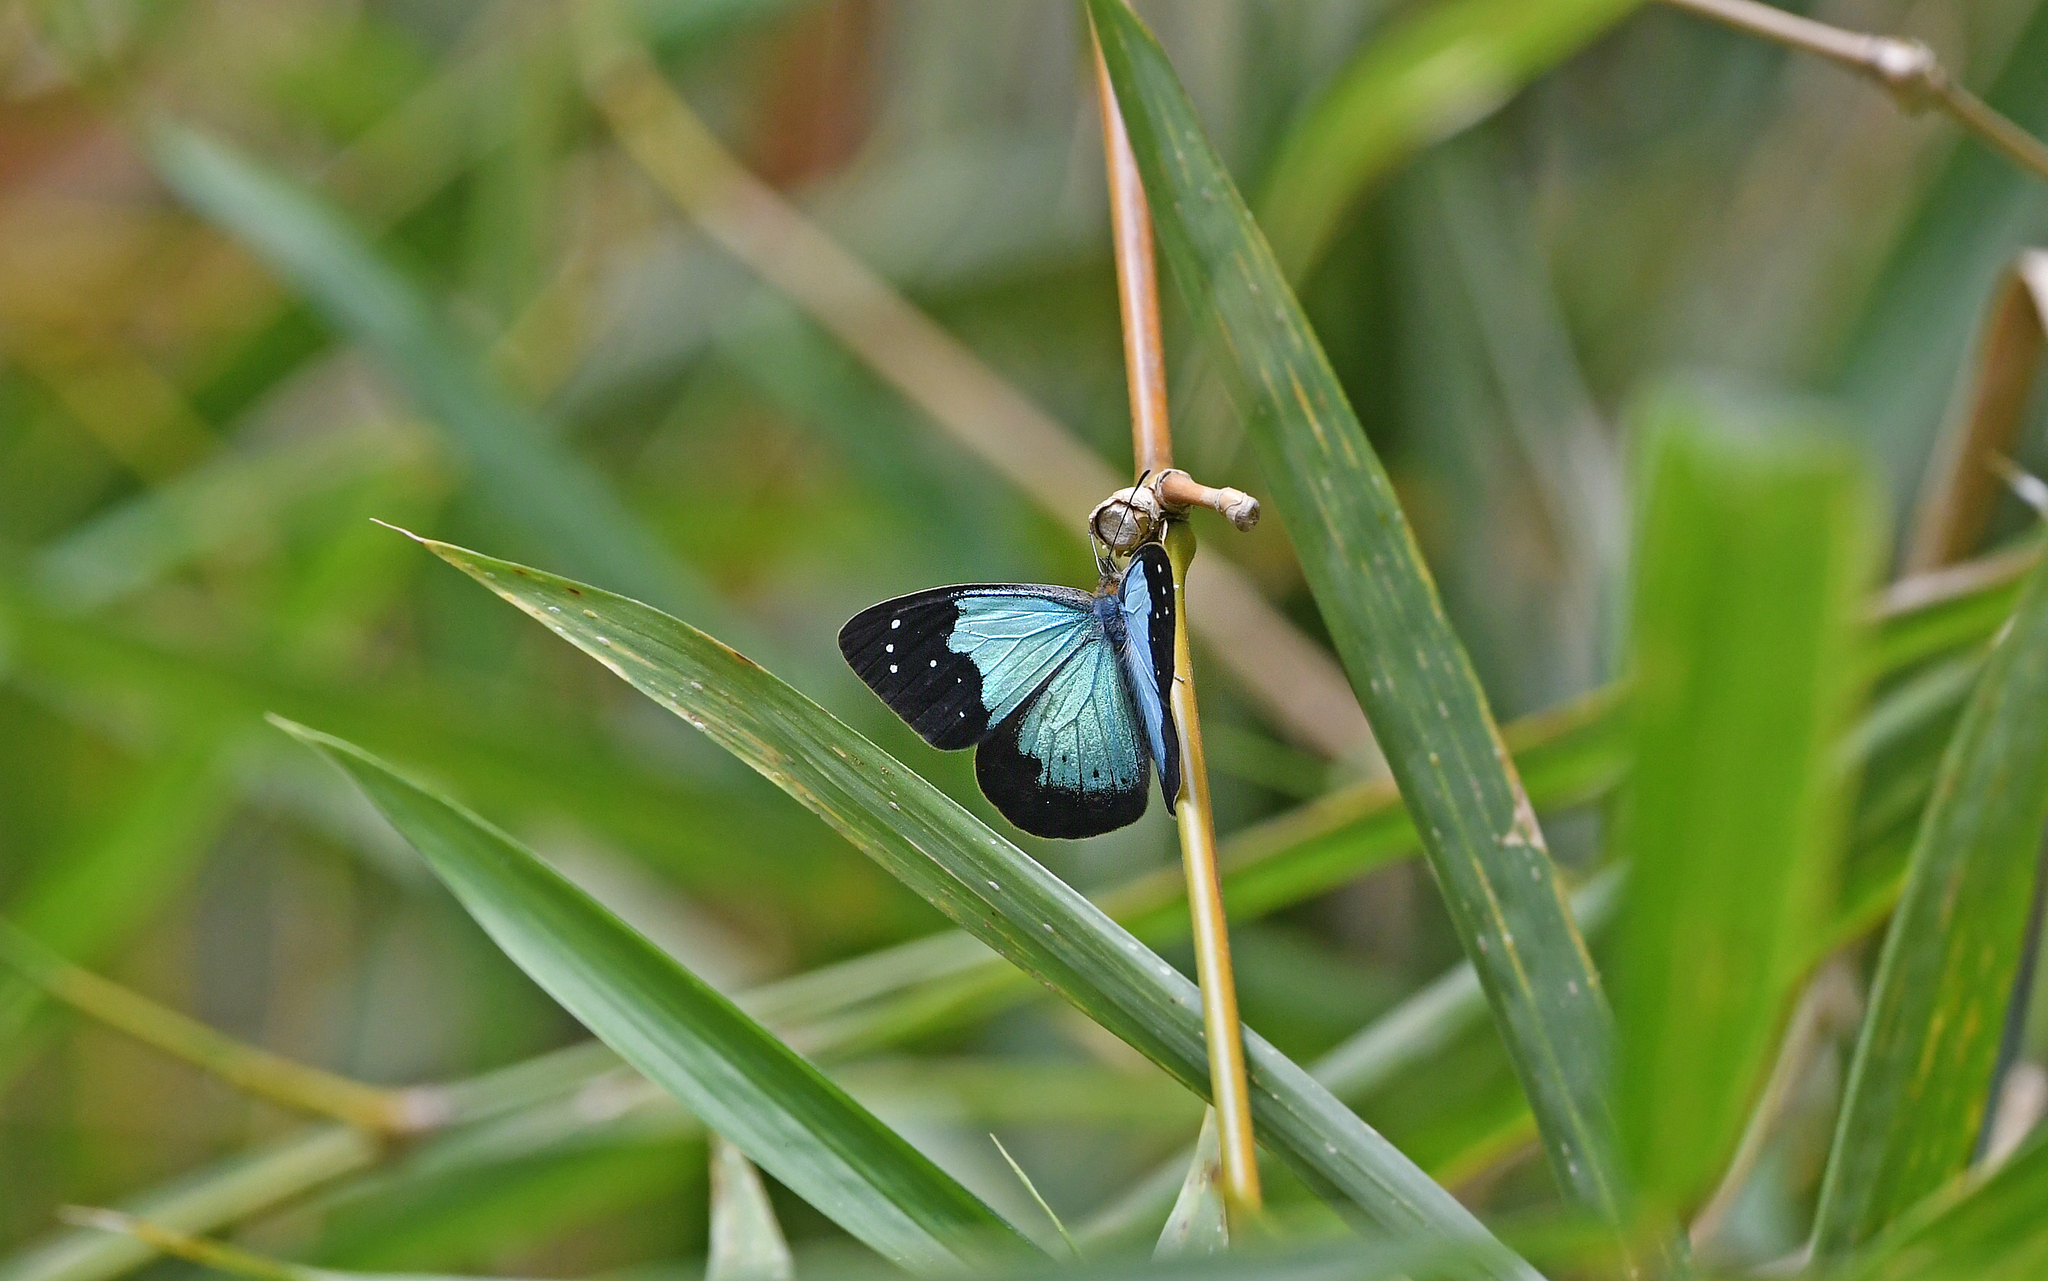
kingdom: Animalia
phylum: Arthropoda
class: Insecta
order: Lepidoptera
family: Nymphalidae
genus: Lymanopoda
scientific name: Lymanopoda caeruleata
